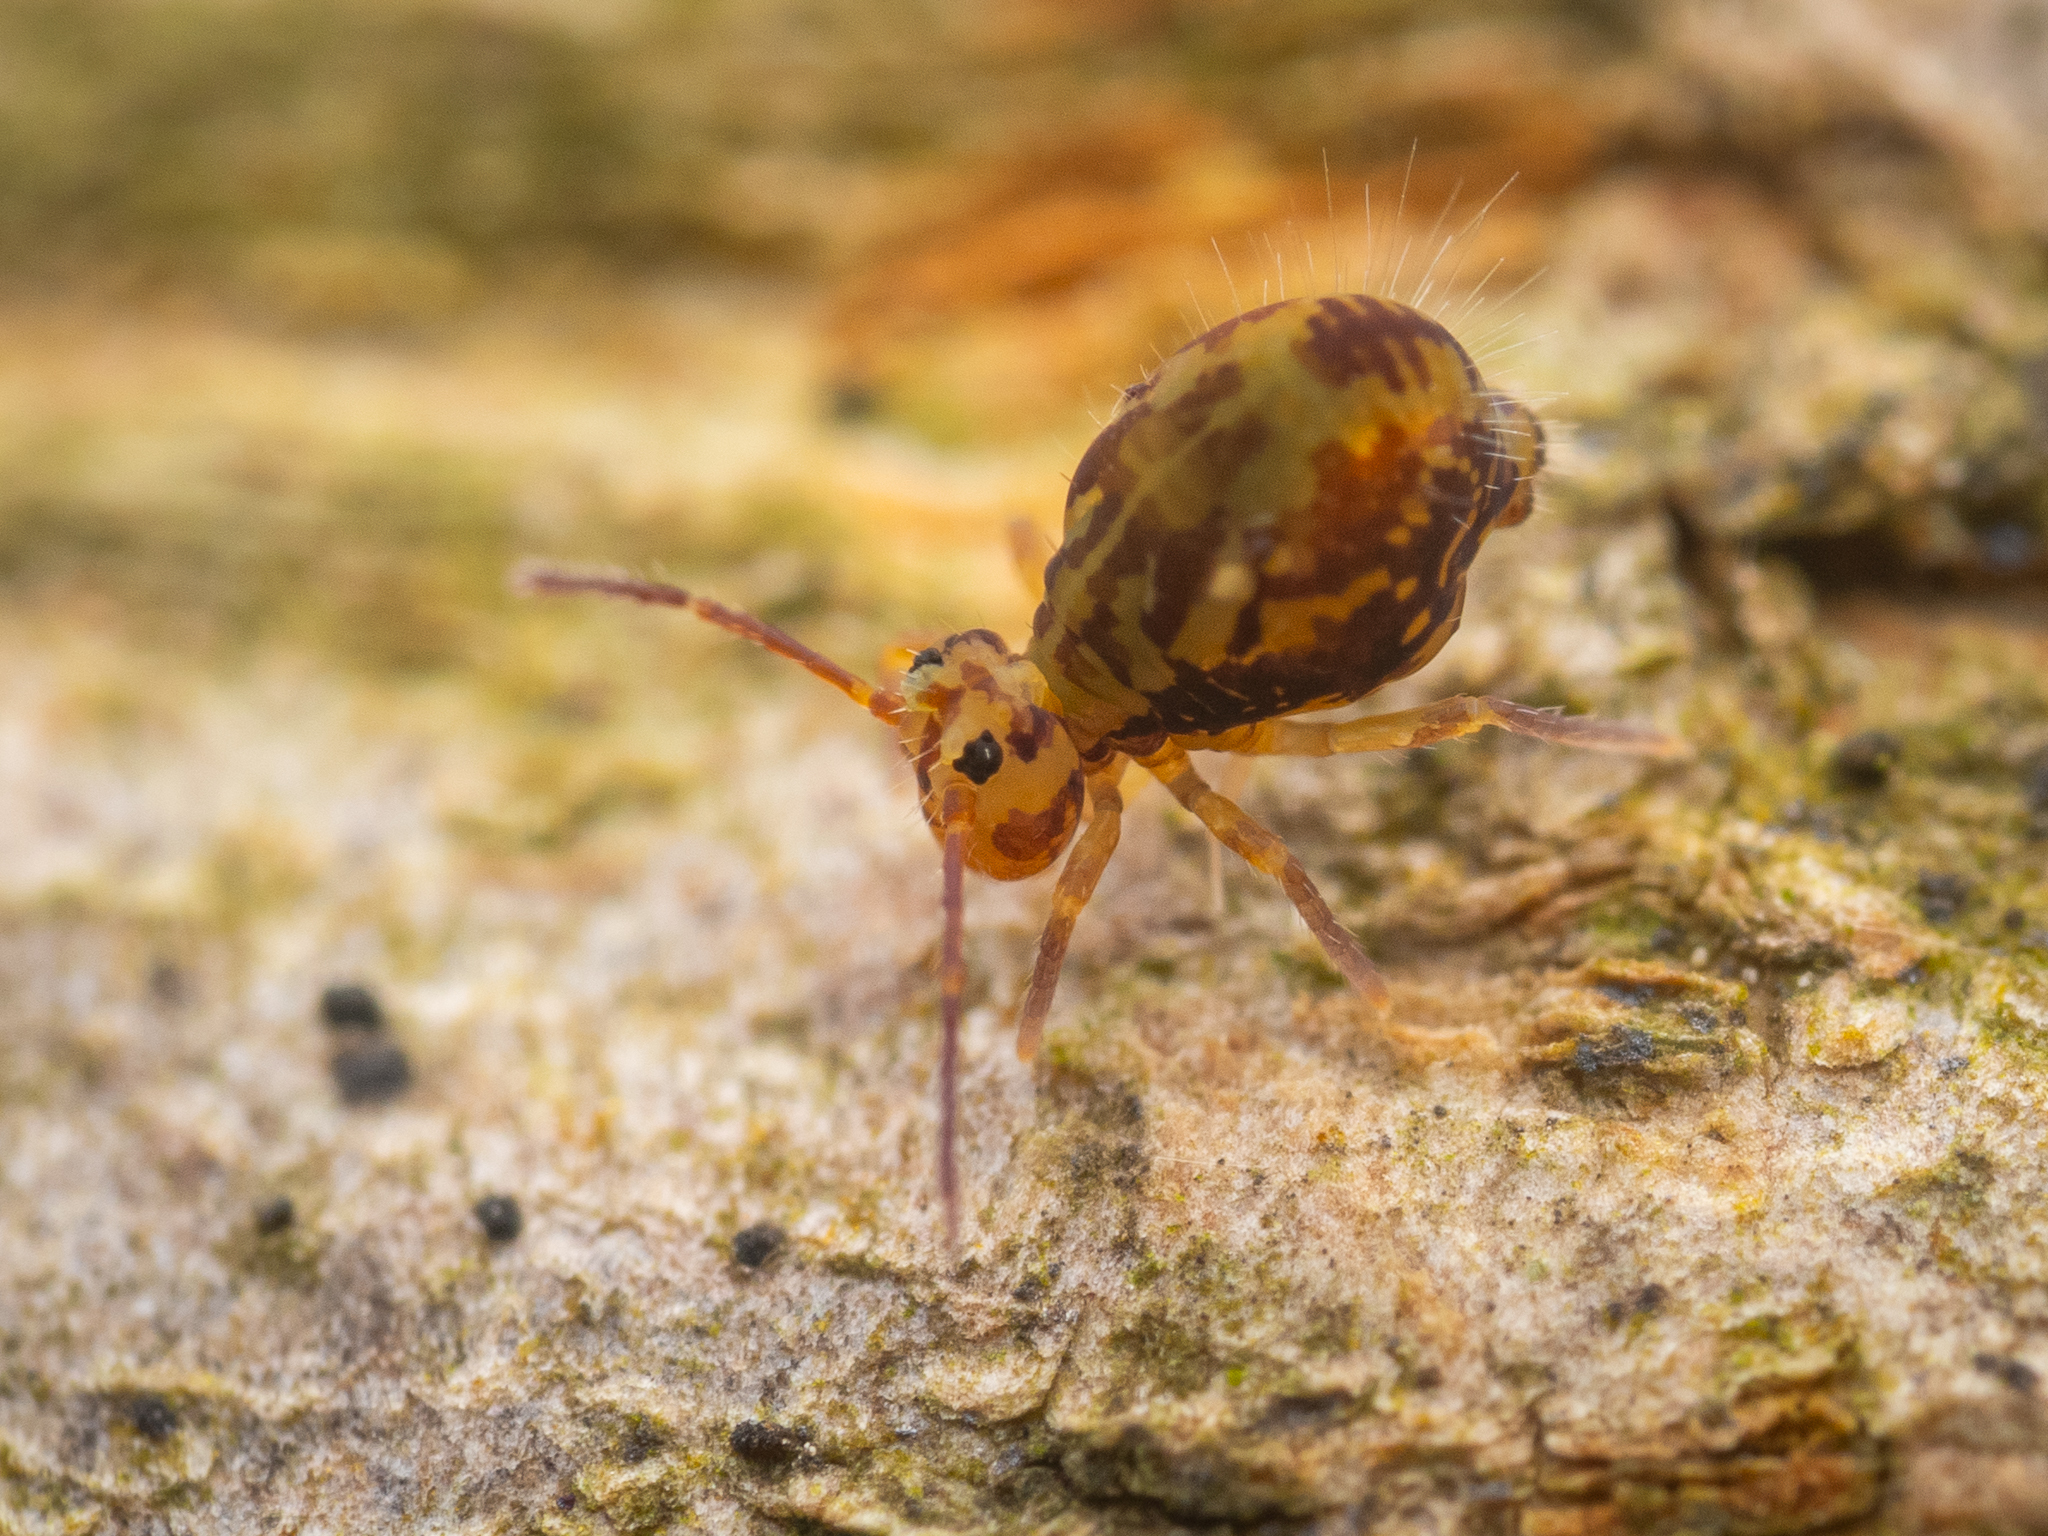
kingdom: Animalia
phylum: Arthropoda
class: Collembola
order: Symphypleona
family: Dicyrtomidae
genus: Dicyrtomina
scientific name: Dicyrtomina saundersi
